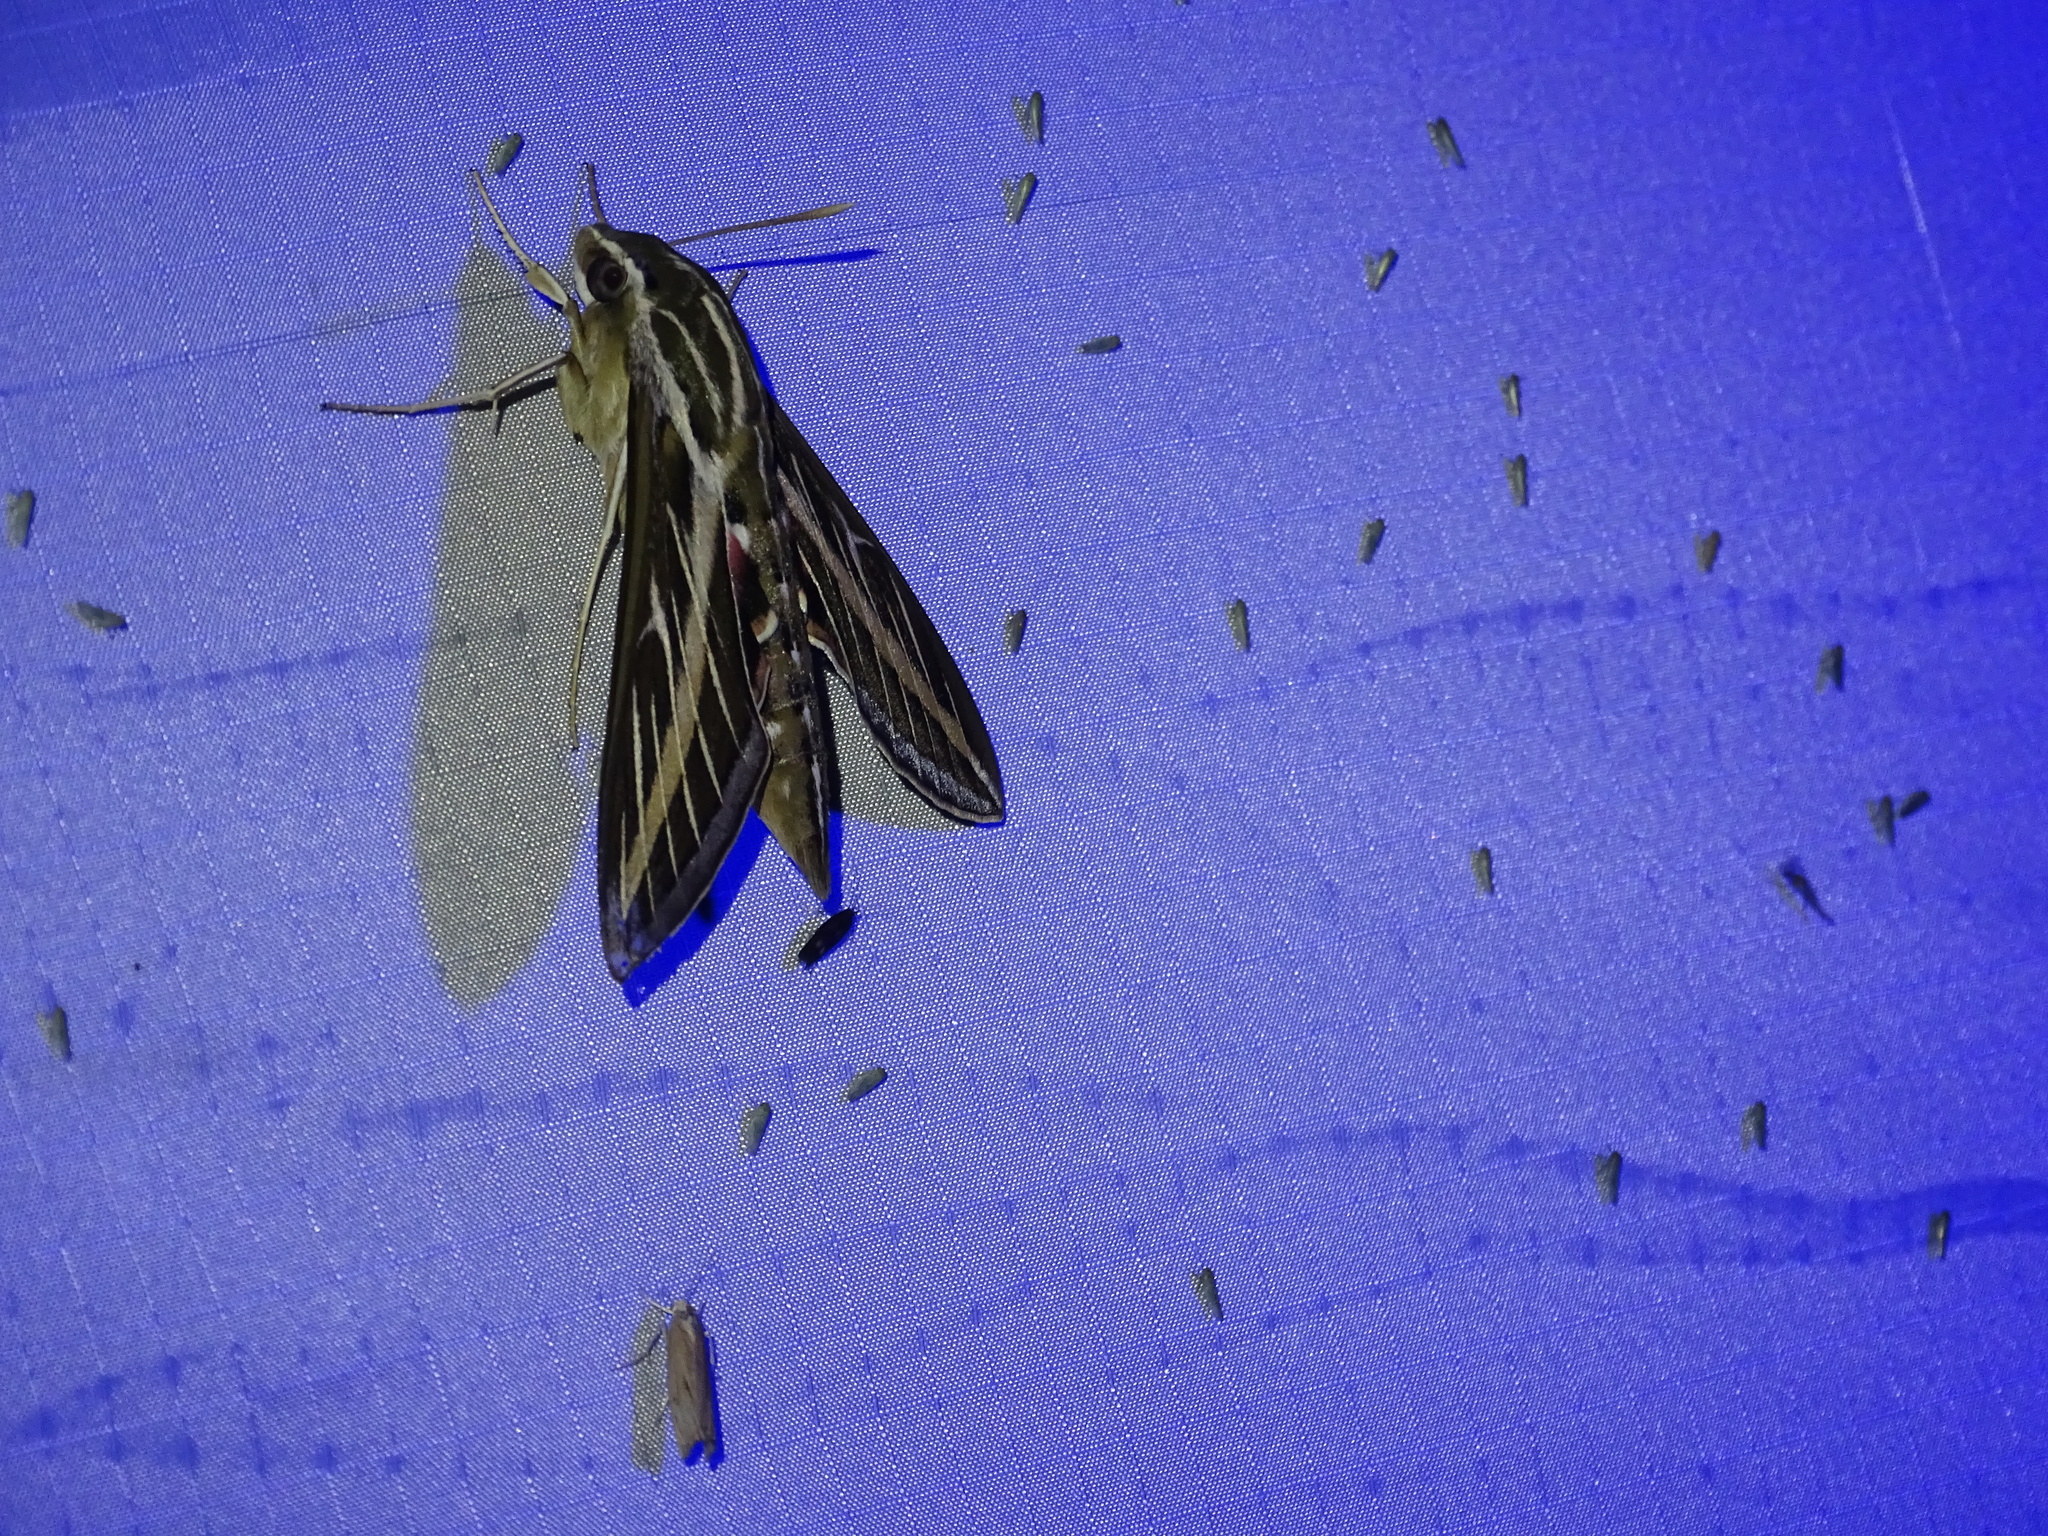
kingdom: Animalia
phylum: Arthropoda
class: Insecta
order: Lepidoptera
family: Sphingidae
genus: Hyles
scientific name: Hyles lineata
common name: White-lined sphinx
